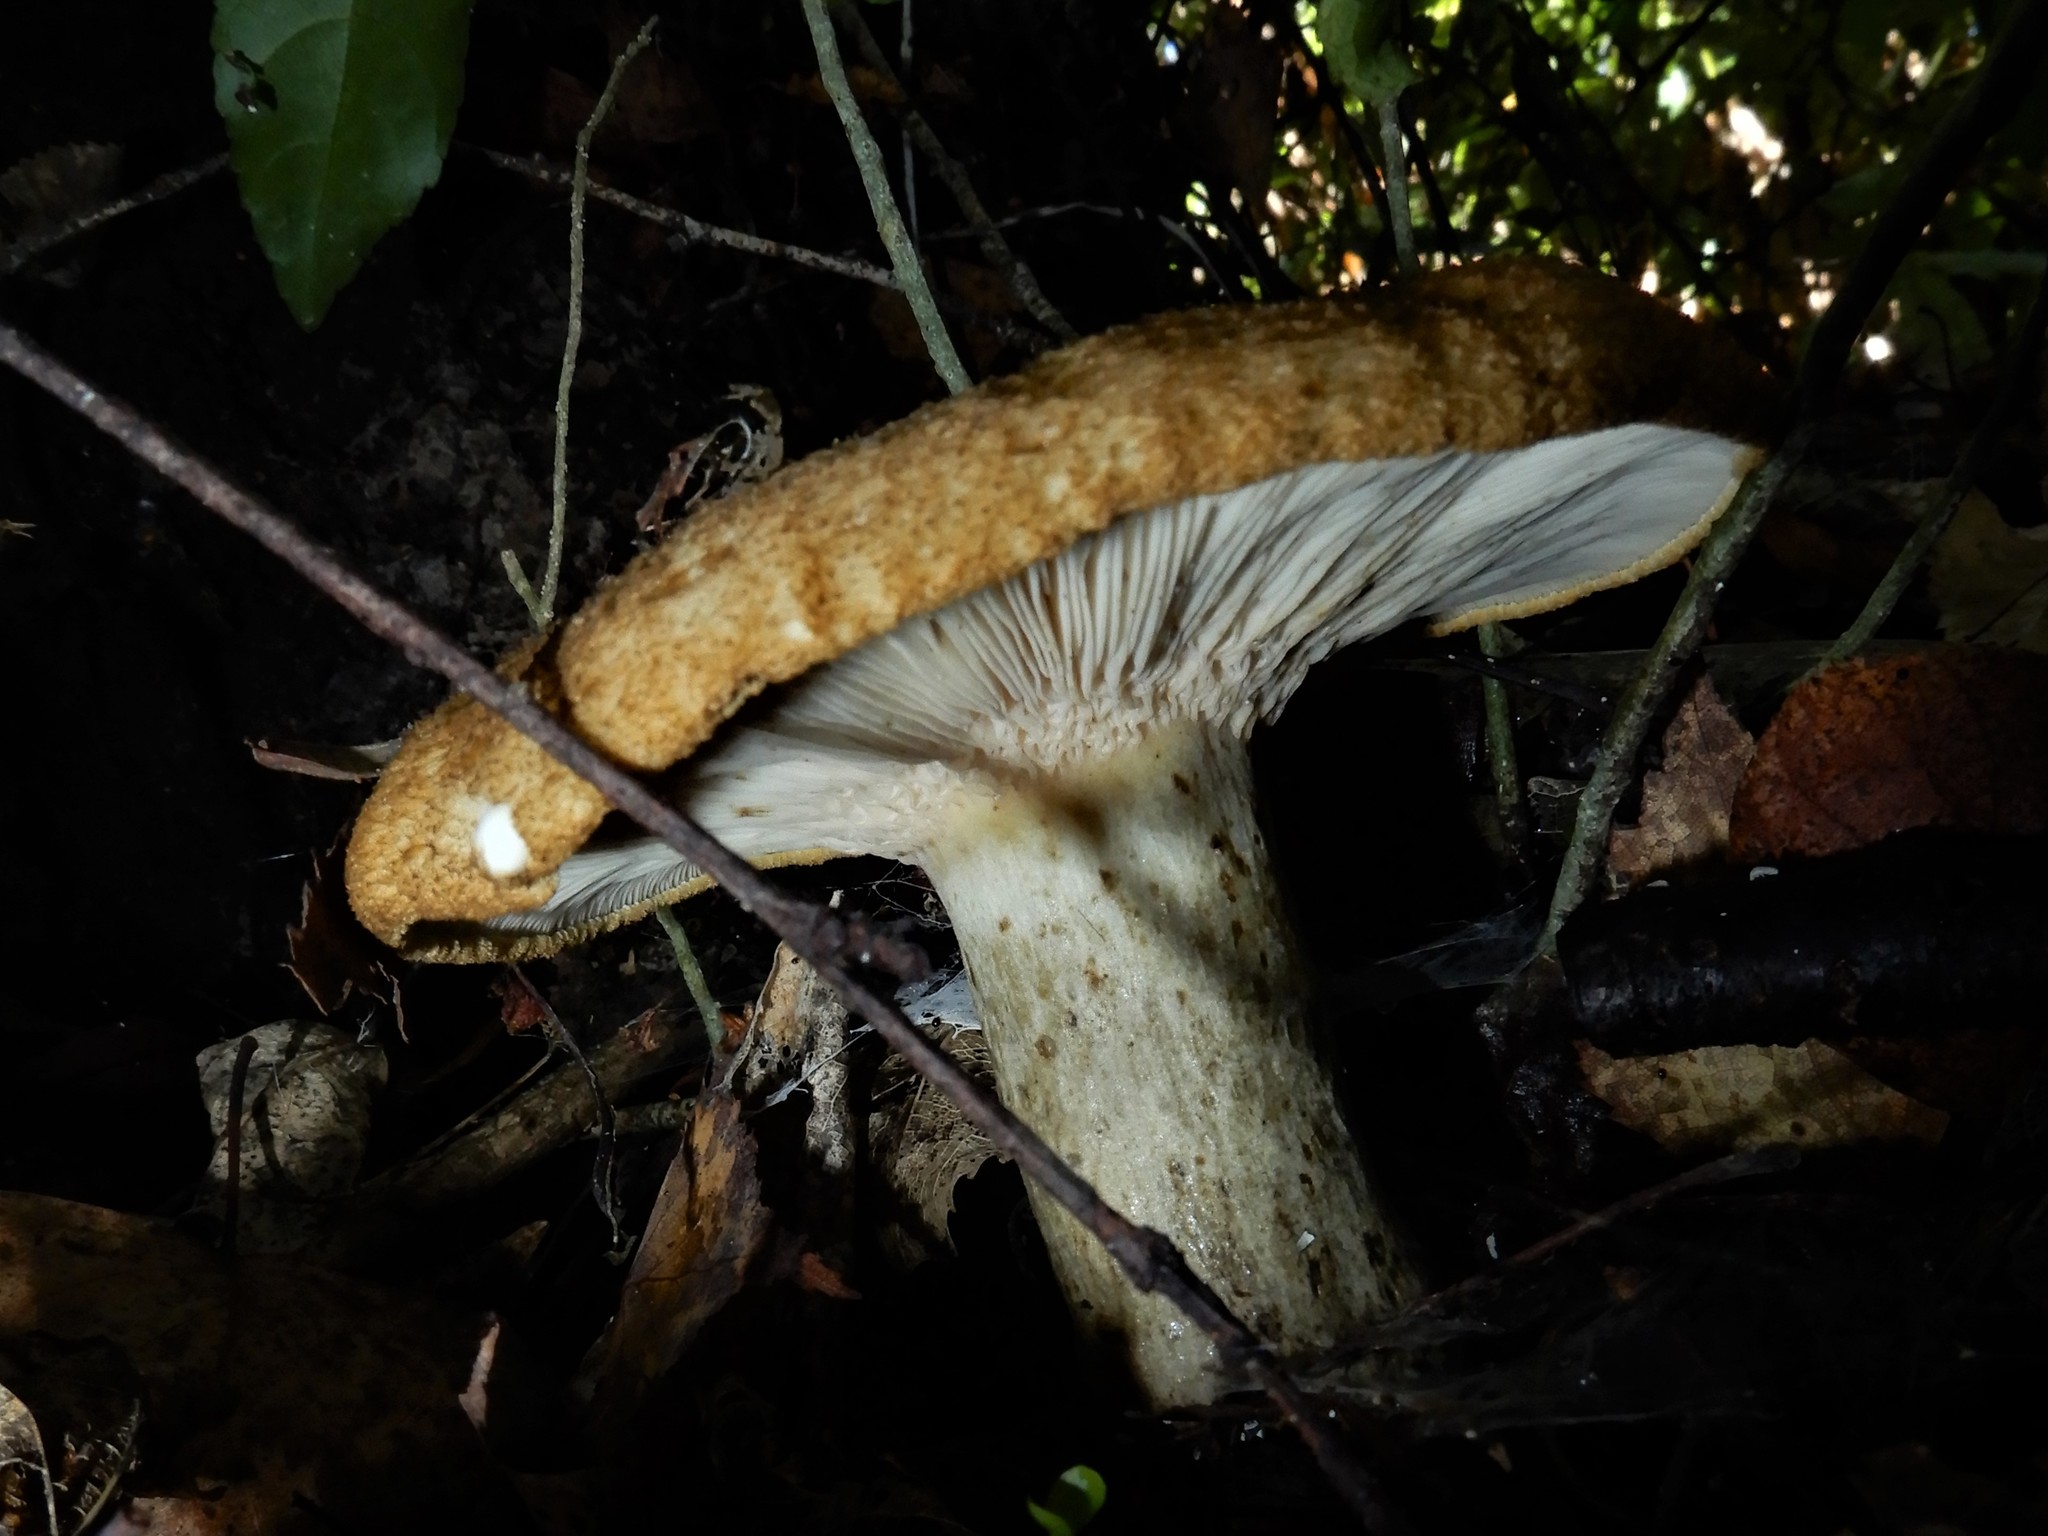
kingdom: Fungi
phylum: Basidiomycota
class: Agaricomycetes
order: Russulales
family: Russulaceae
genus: Lactarius
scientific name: Lactarius turpis
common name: Ugly milk-cap
